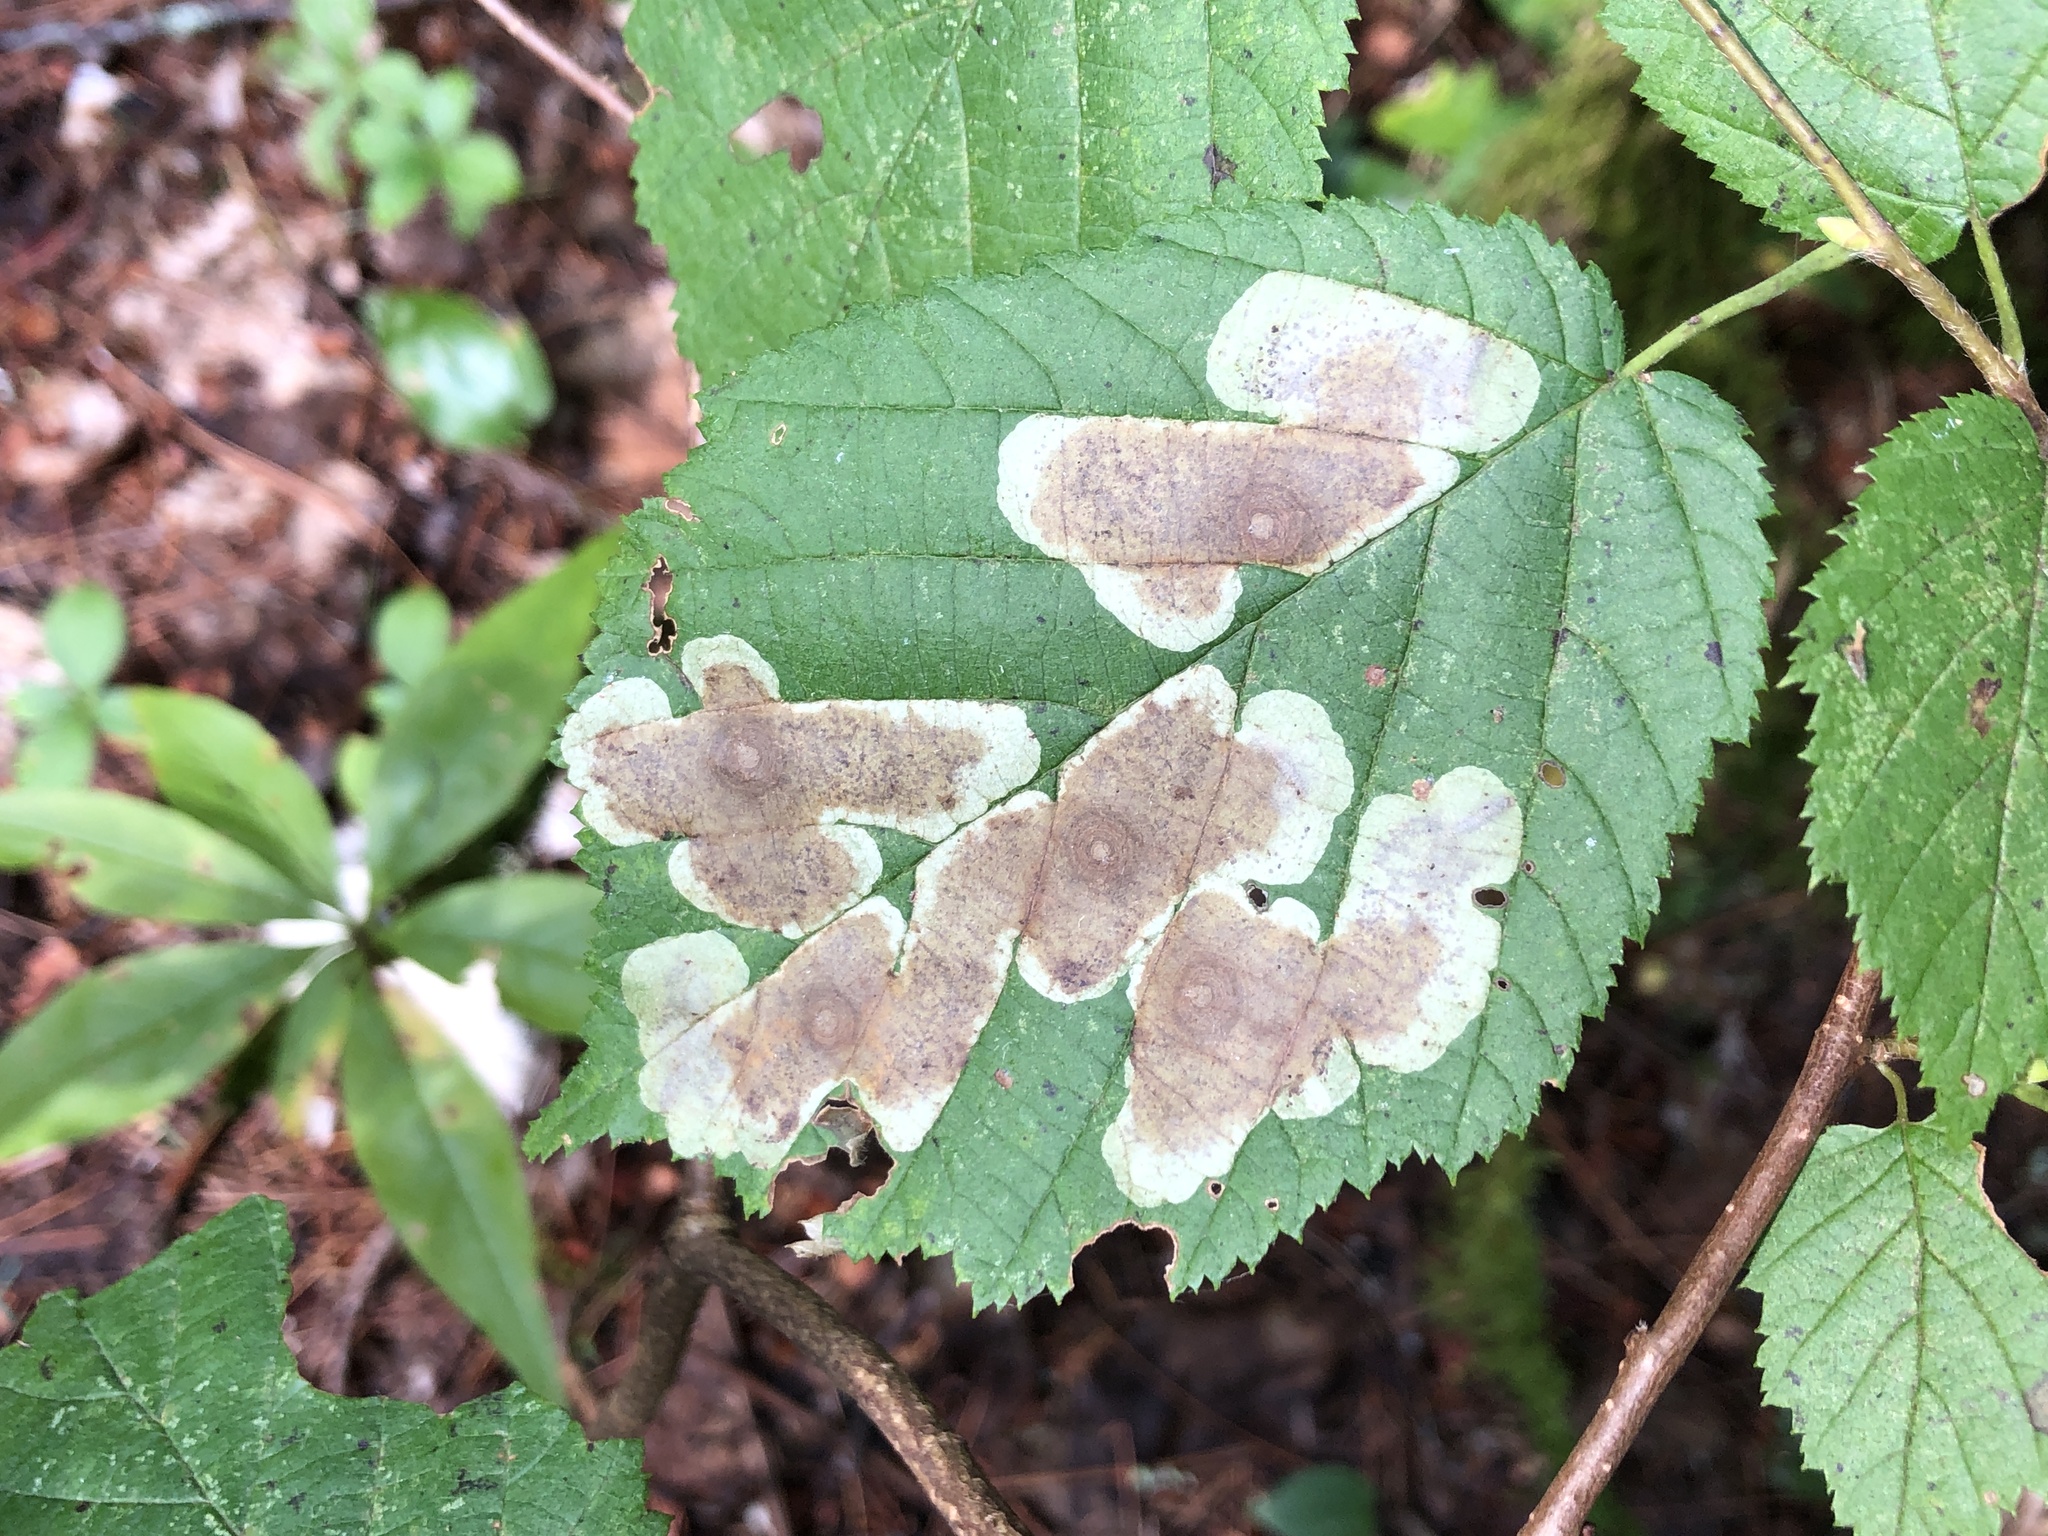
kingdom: Animalia
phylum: Arthropoda
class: Insecta
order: Lepidoptera
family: Gracillariidae
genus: Cameraria
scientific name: Cameraria corylisella
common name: Hazel blotchminer
